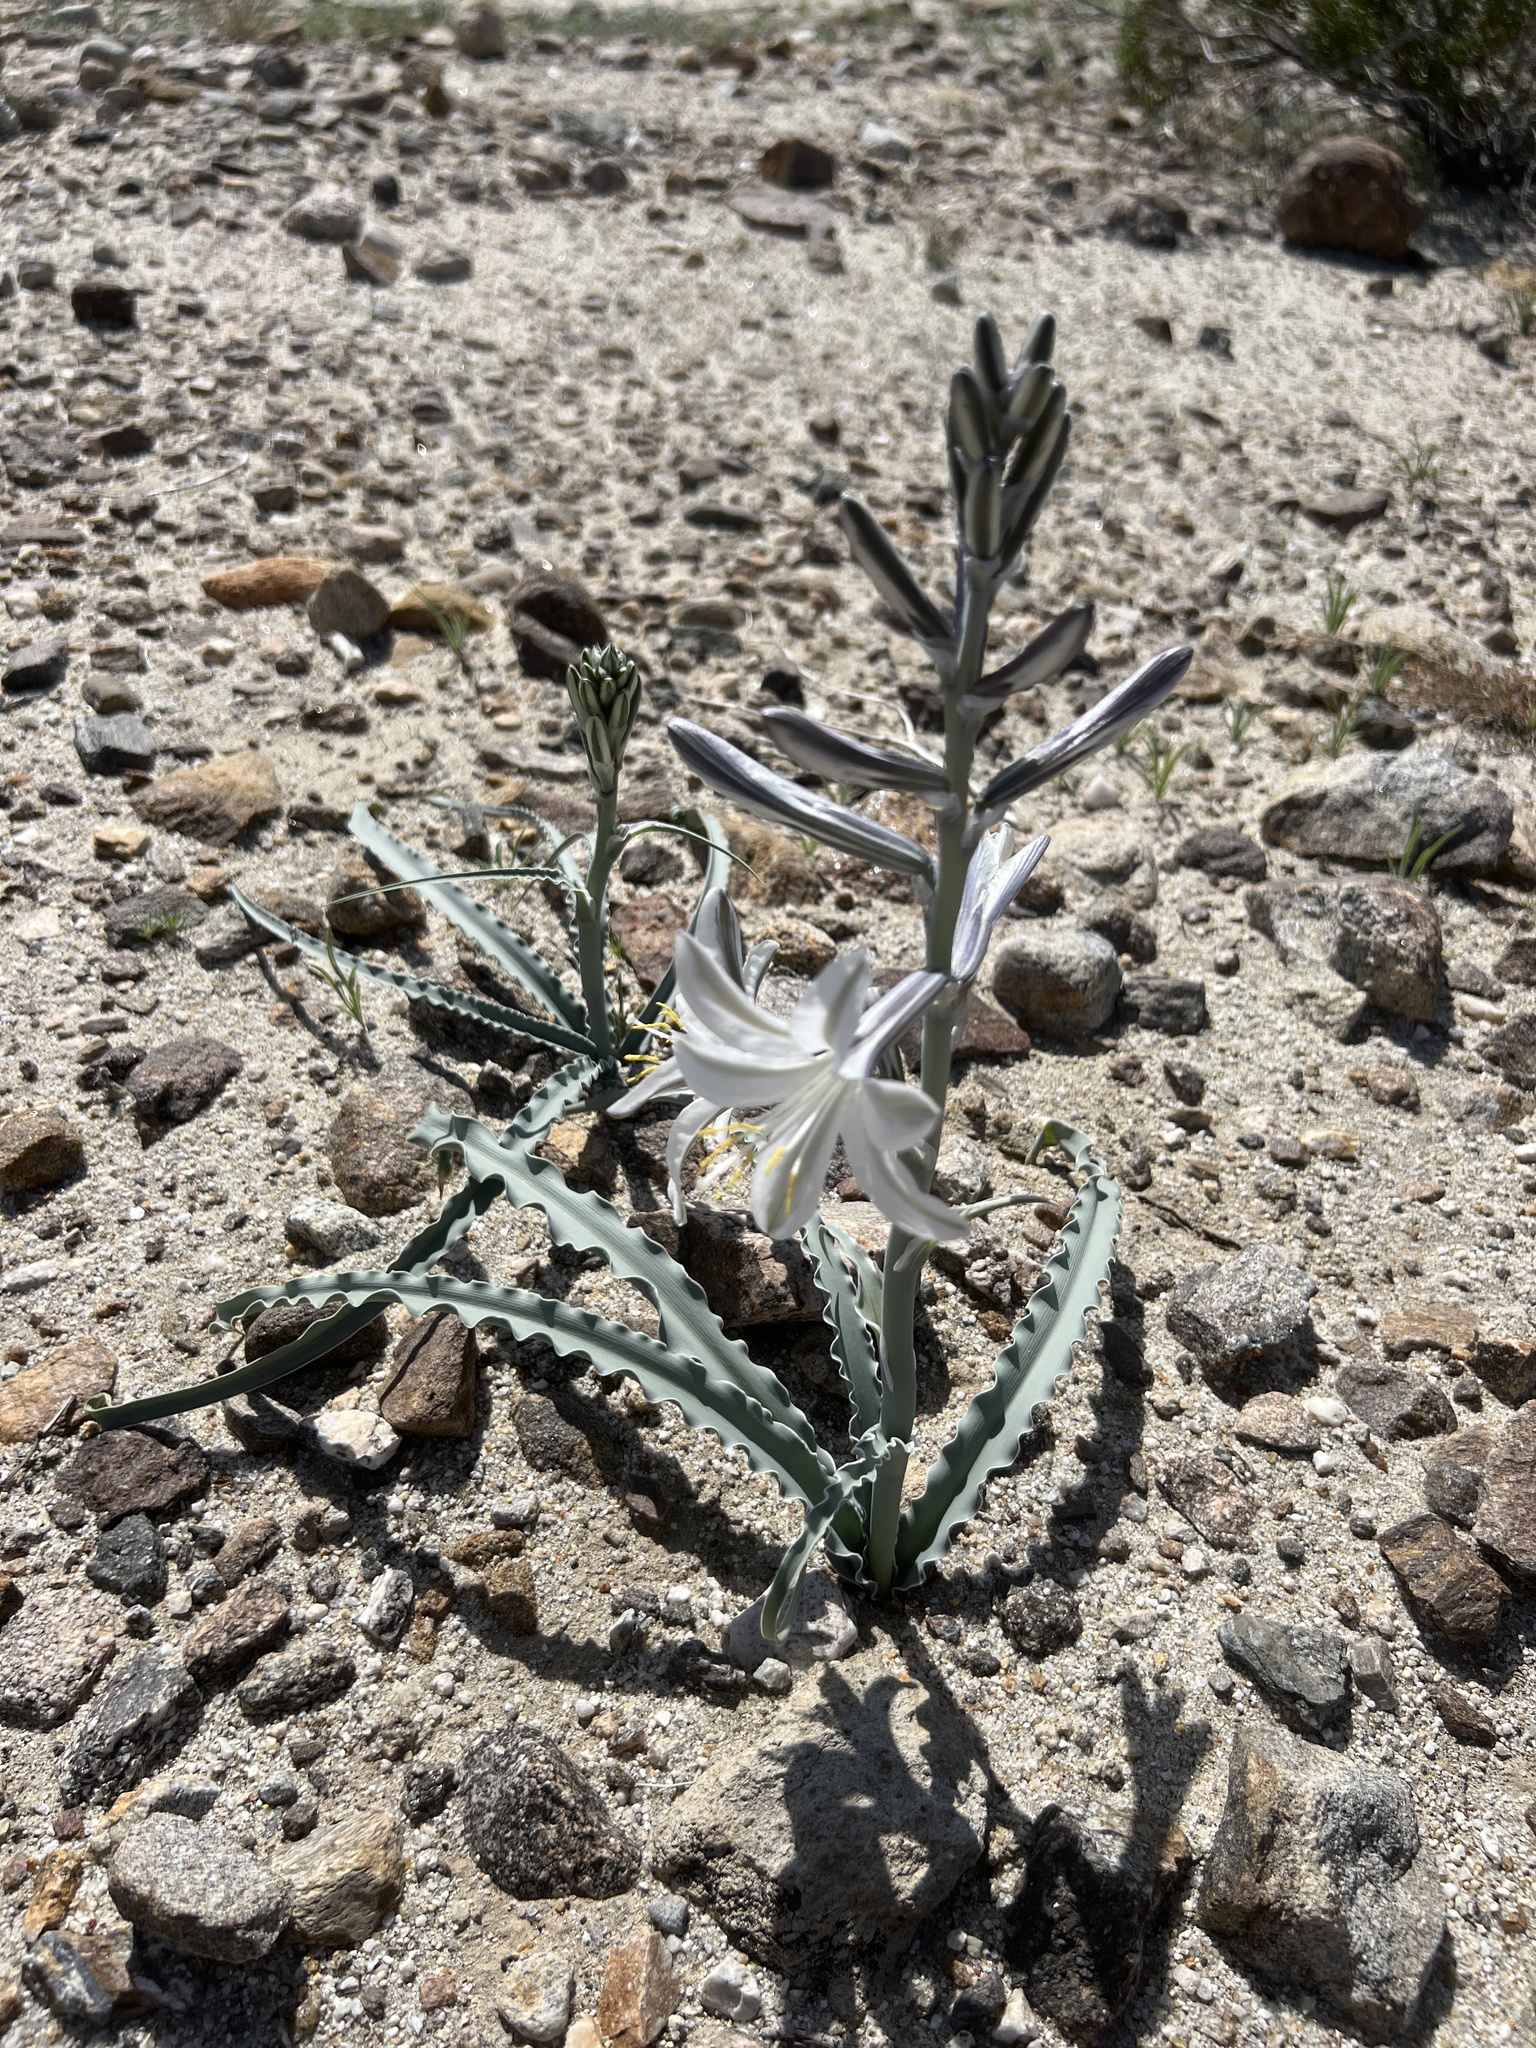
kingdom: Plantae
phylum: Tracheophyta
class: Liliopsida
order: Asparagales
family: Asparagaceae
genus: Hesperocallis
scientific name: Hesperocallis undulata
